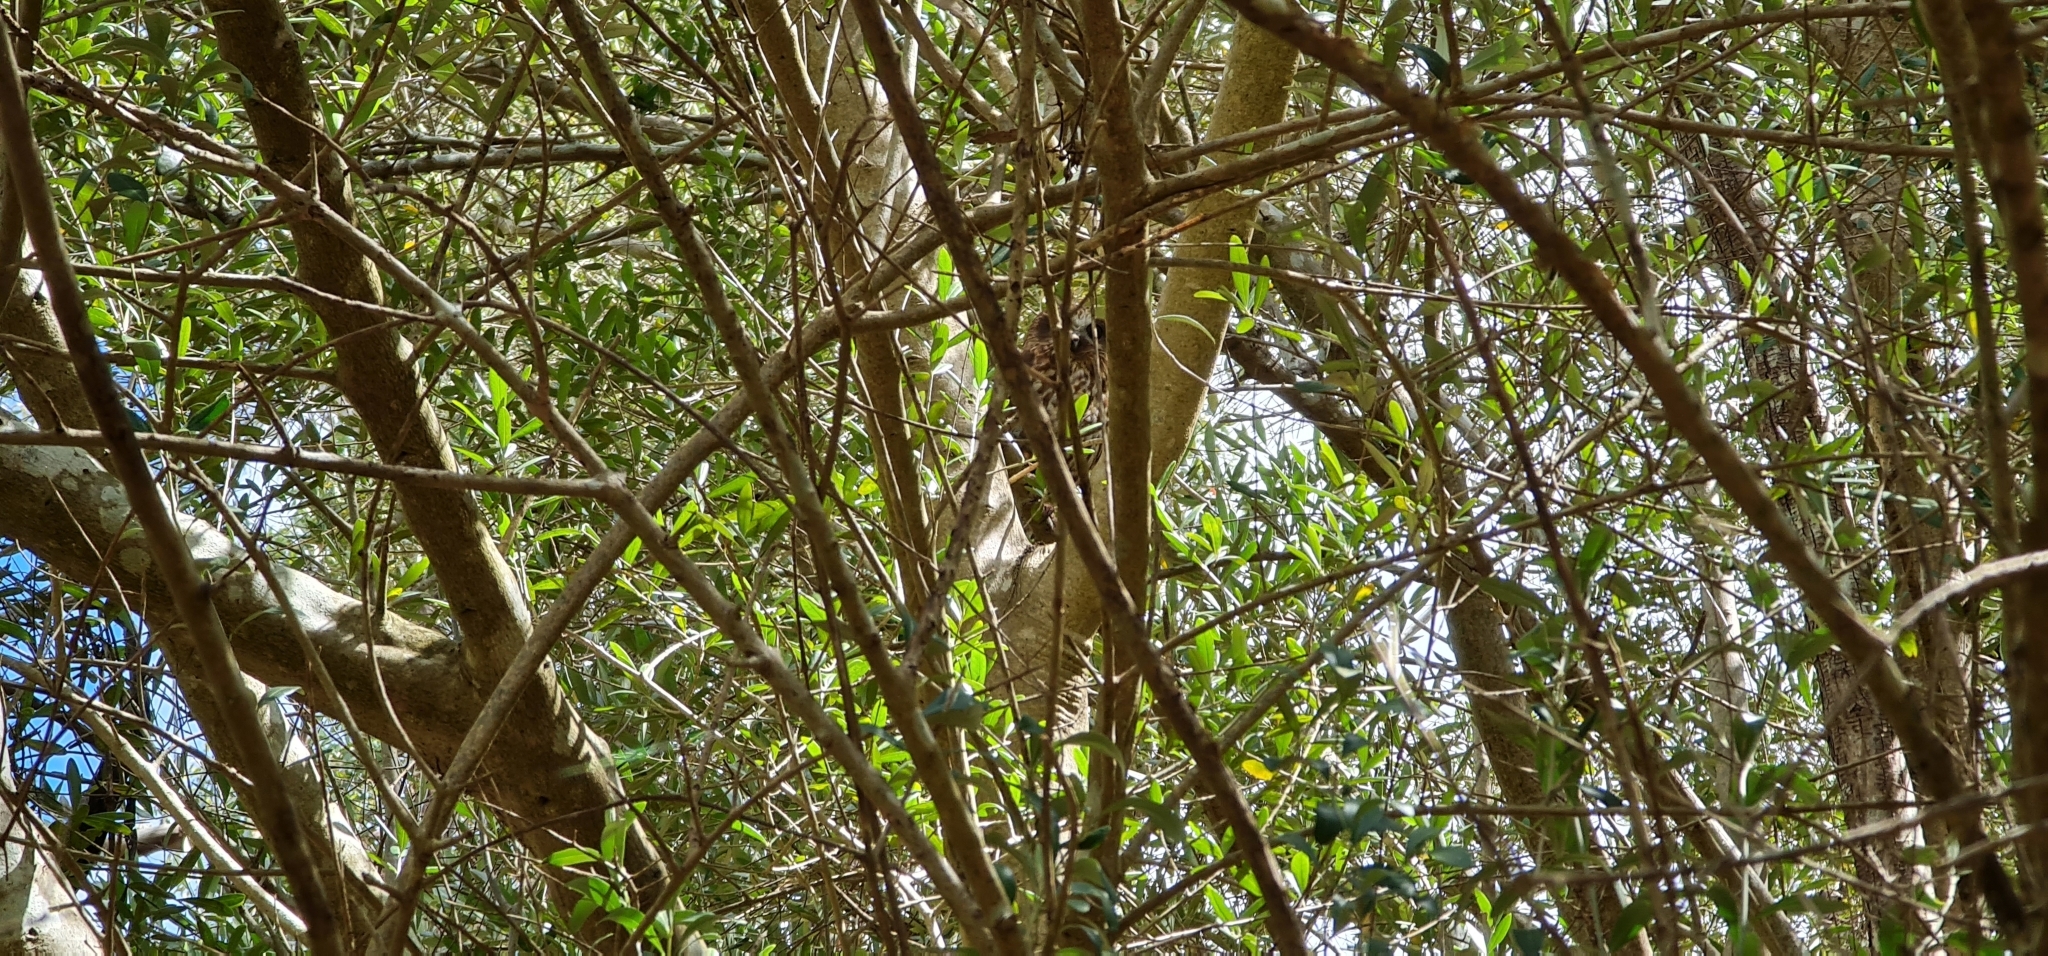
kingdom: Animalia
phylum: Chordata
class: Aves
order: Strigiformes
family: Strigidae
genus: Ninox
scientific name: Ninox boobook
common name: Southern boobook
